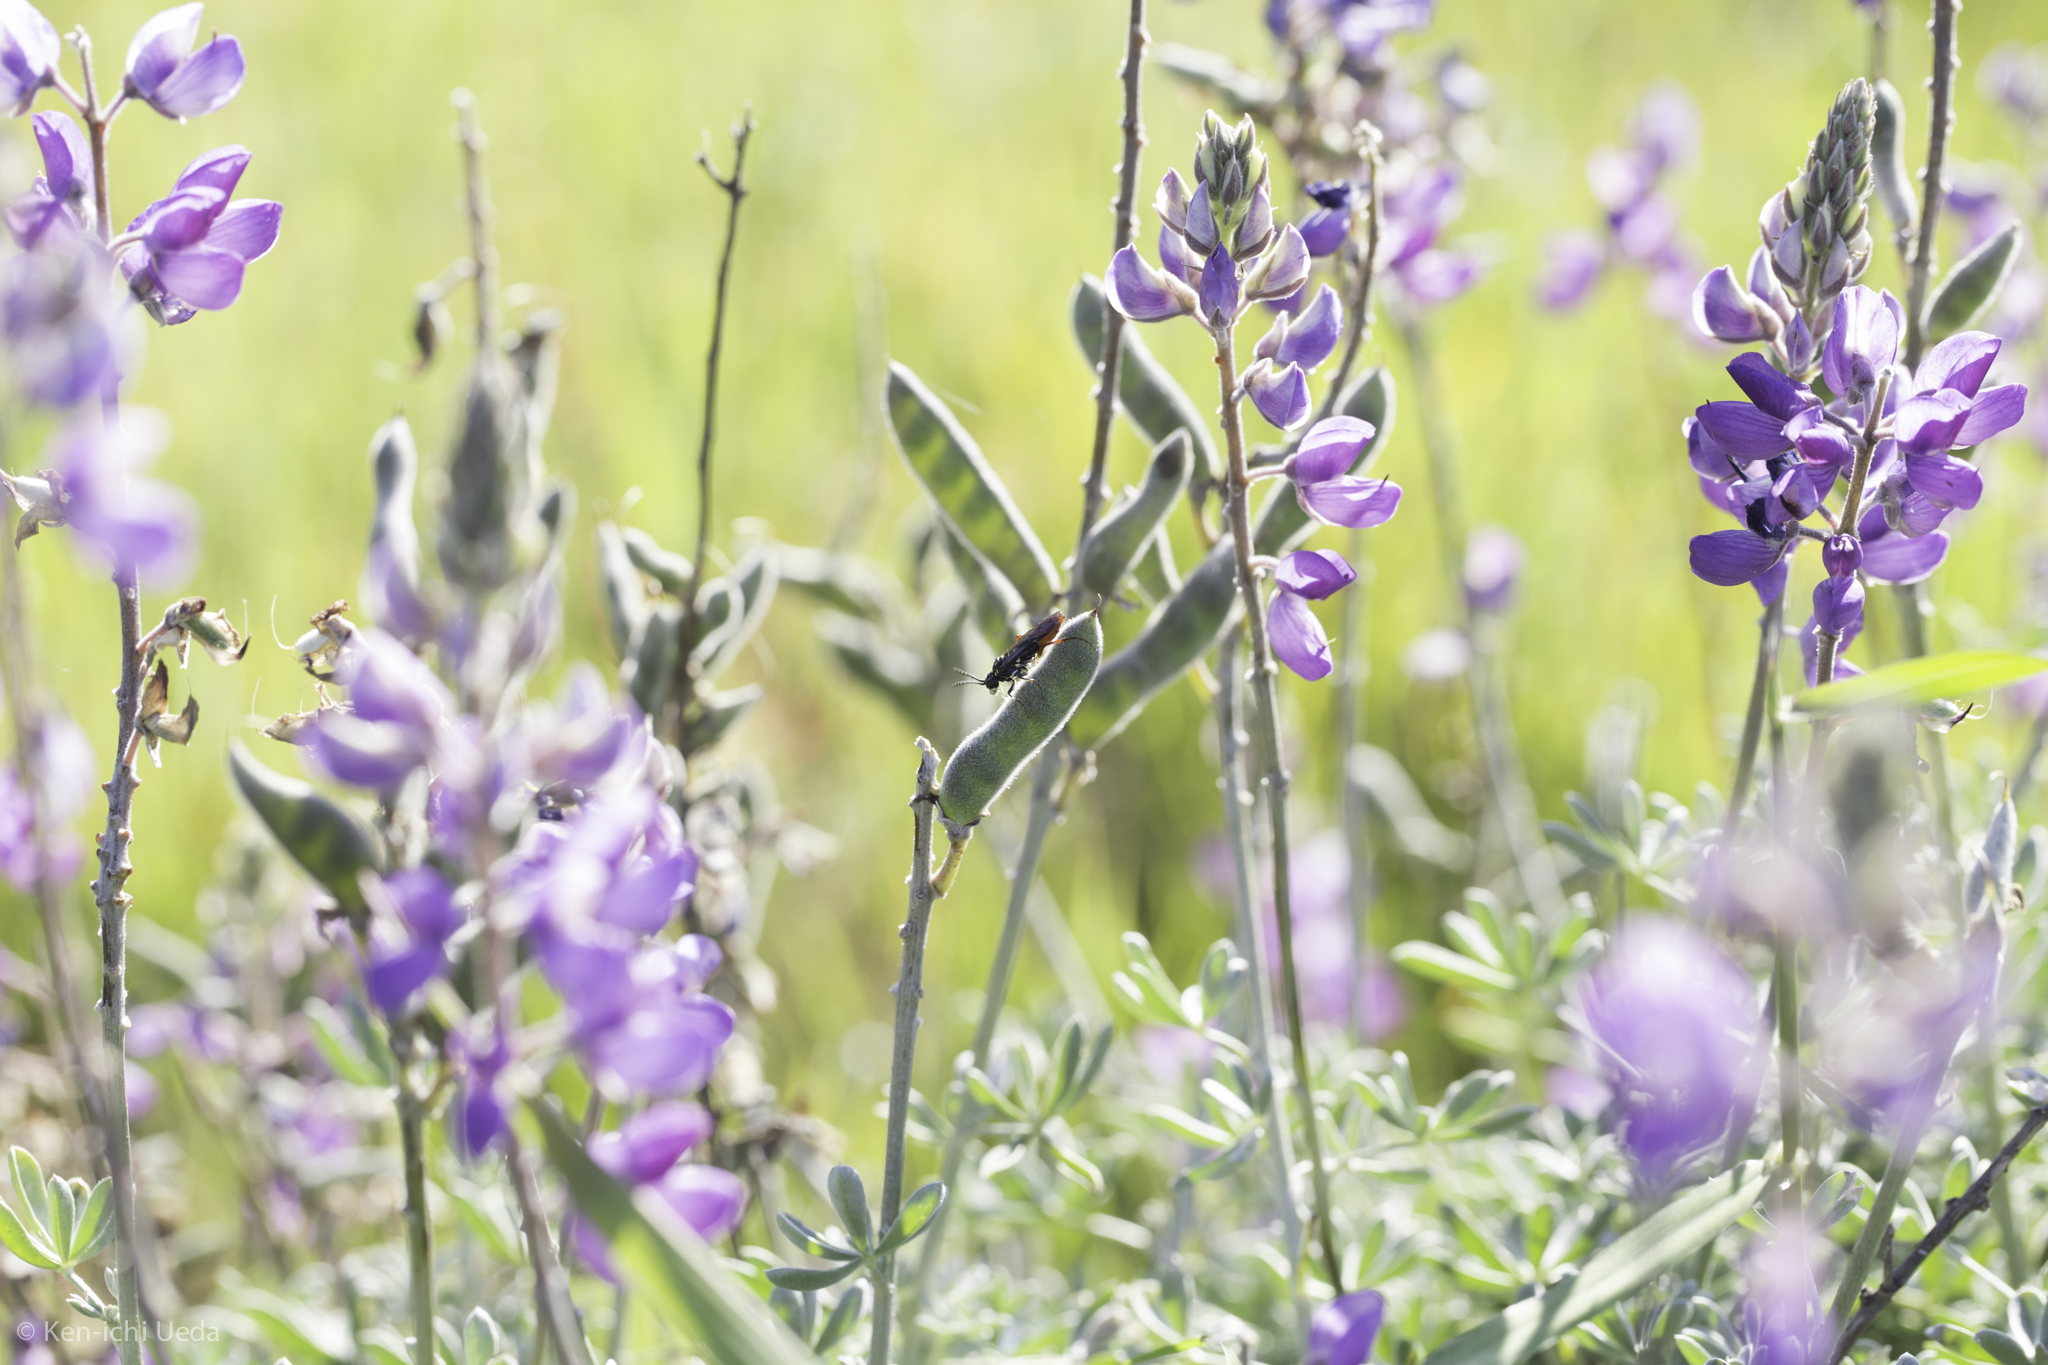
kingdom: Plantae
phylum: Tracheophyta
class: Magnoliopsida
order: Fabales
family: Fabaceae
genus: Lupinus
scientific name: Lupinus albifrons
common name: Foothill lupine
